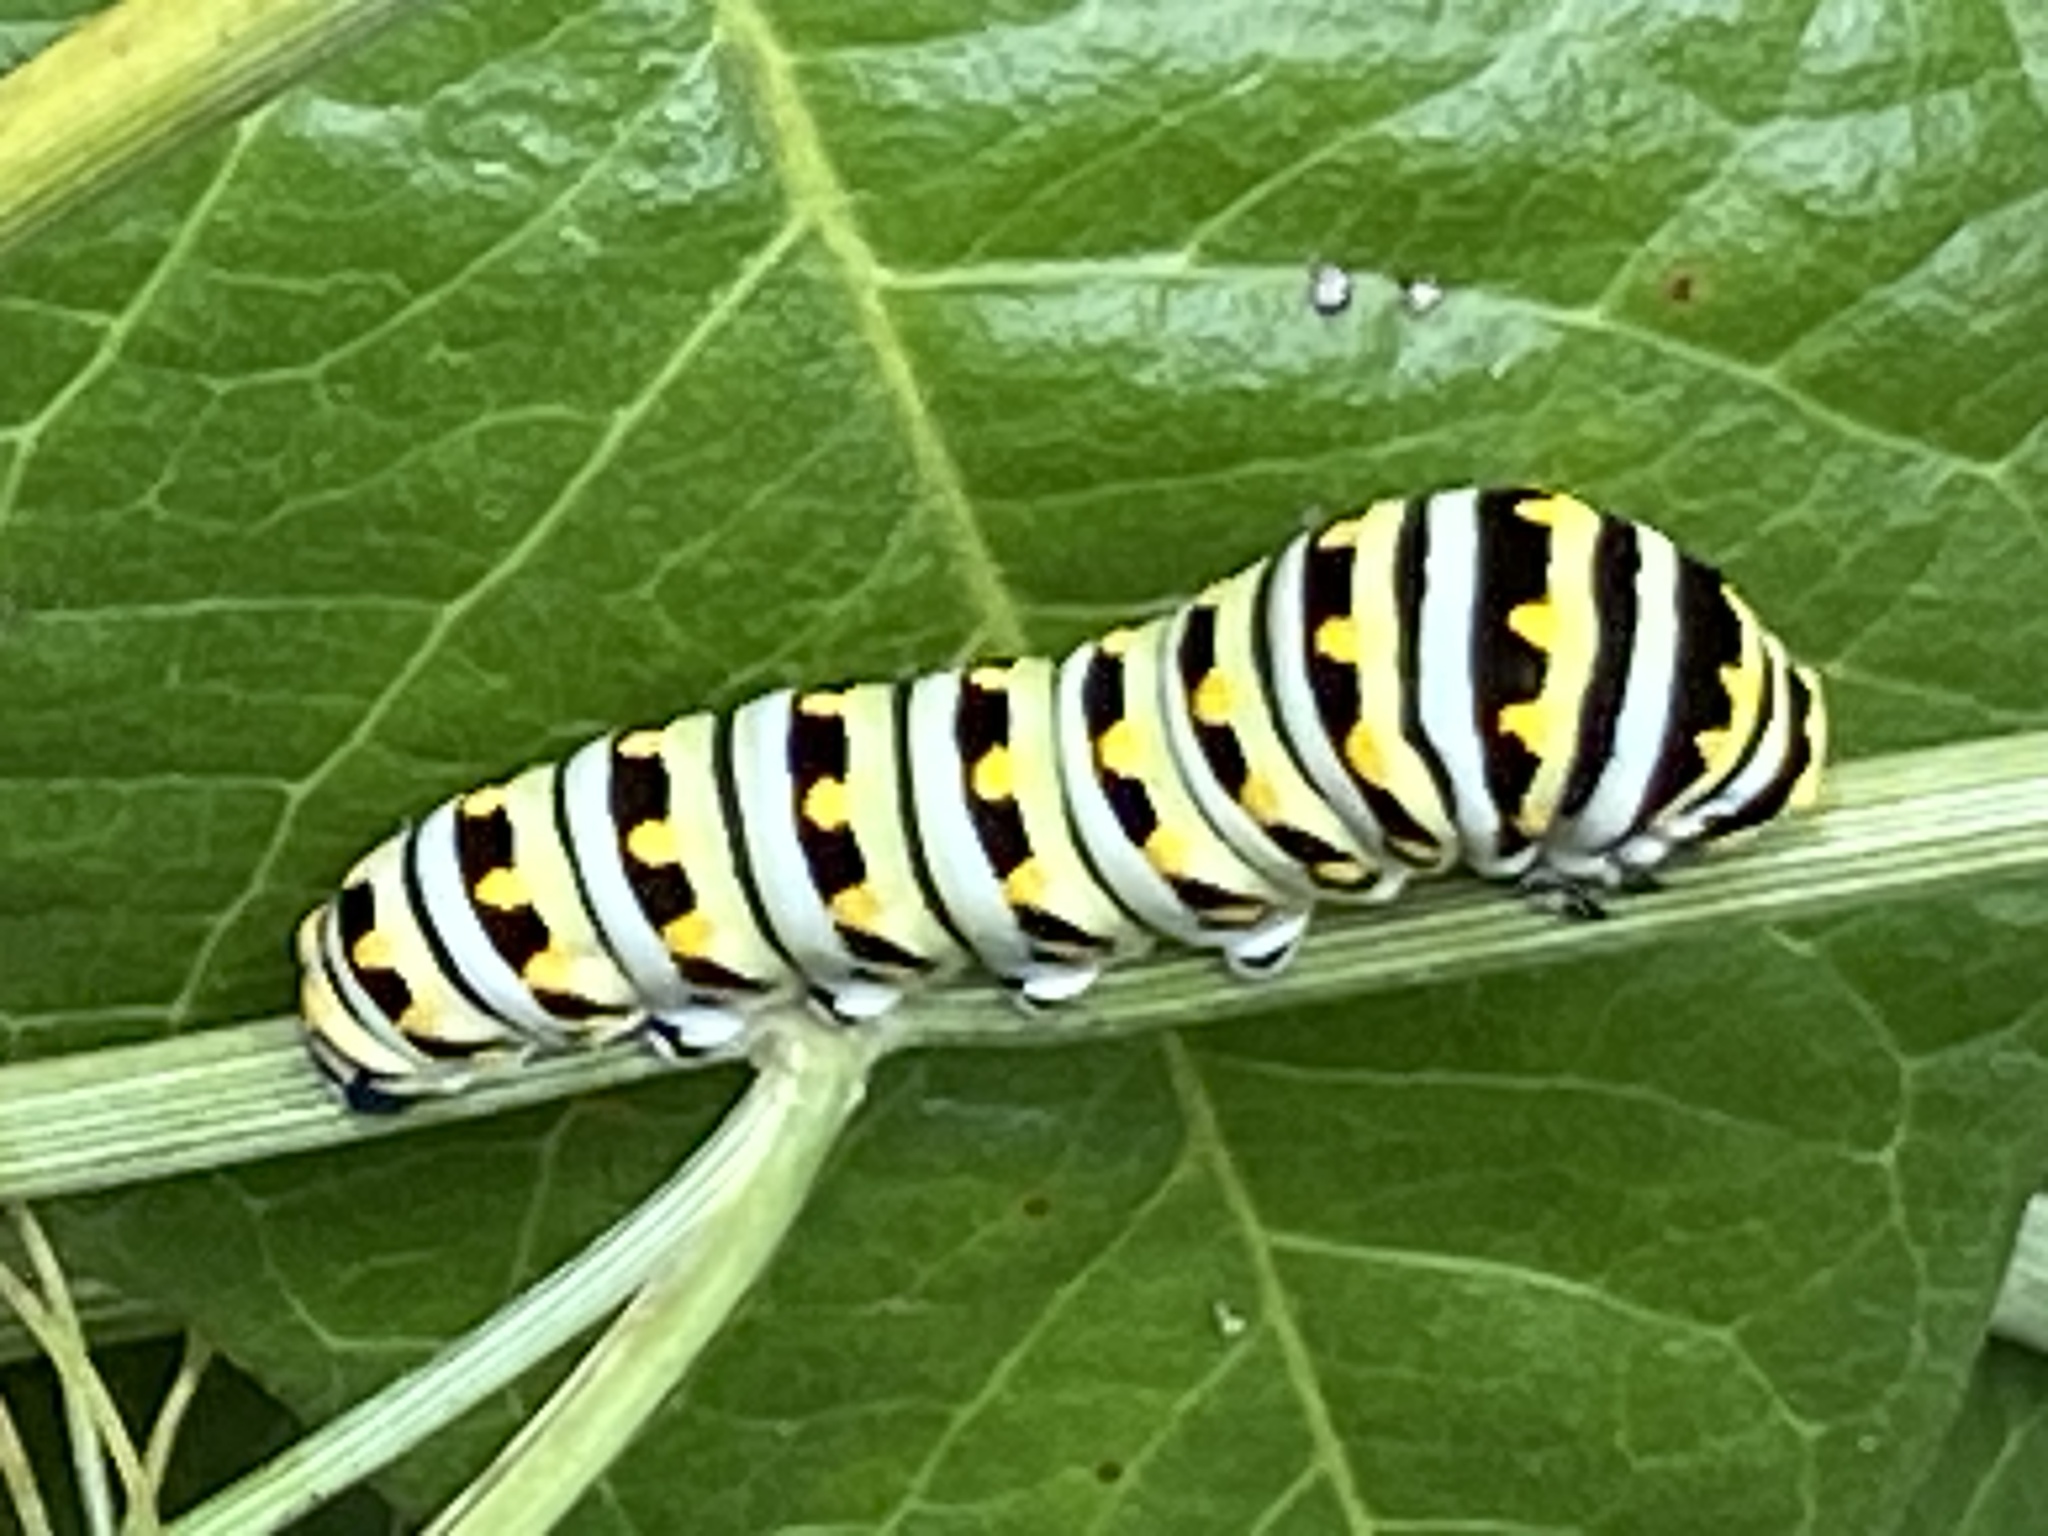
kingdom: Animalia
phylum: Arthropoda
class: Insecta
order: Lepidoptera
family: Papilionidae
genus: Papilio
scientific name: Papilio polyxenes
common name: Black swallowtail
